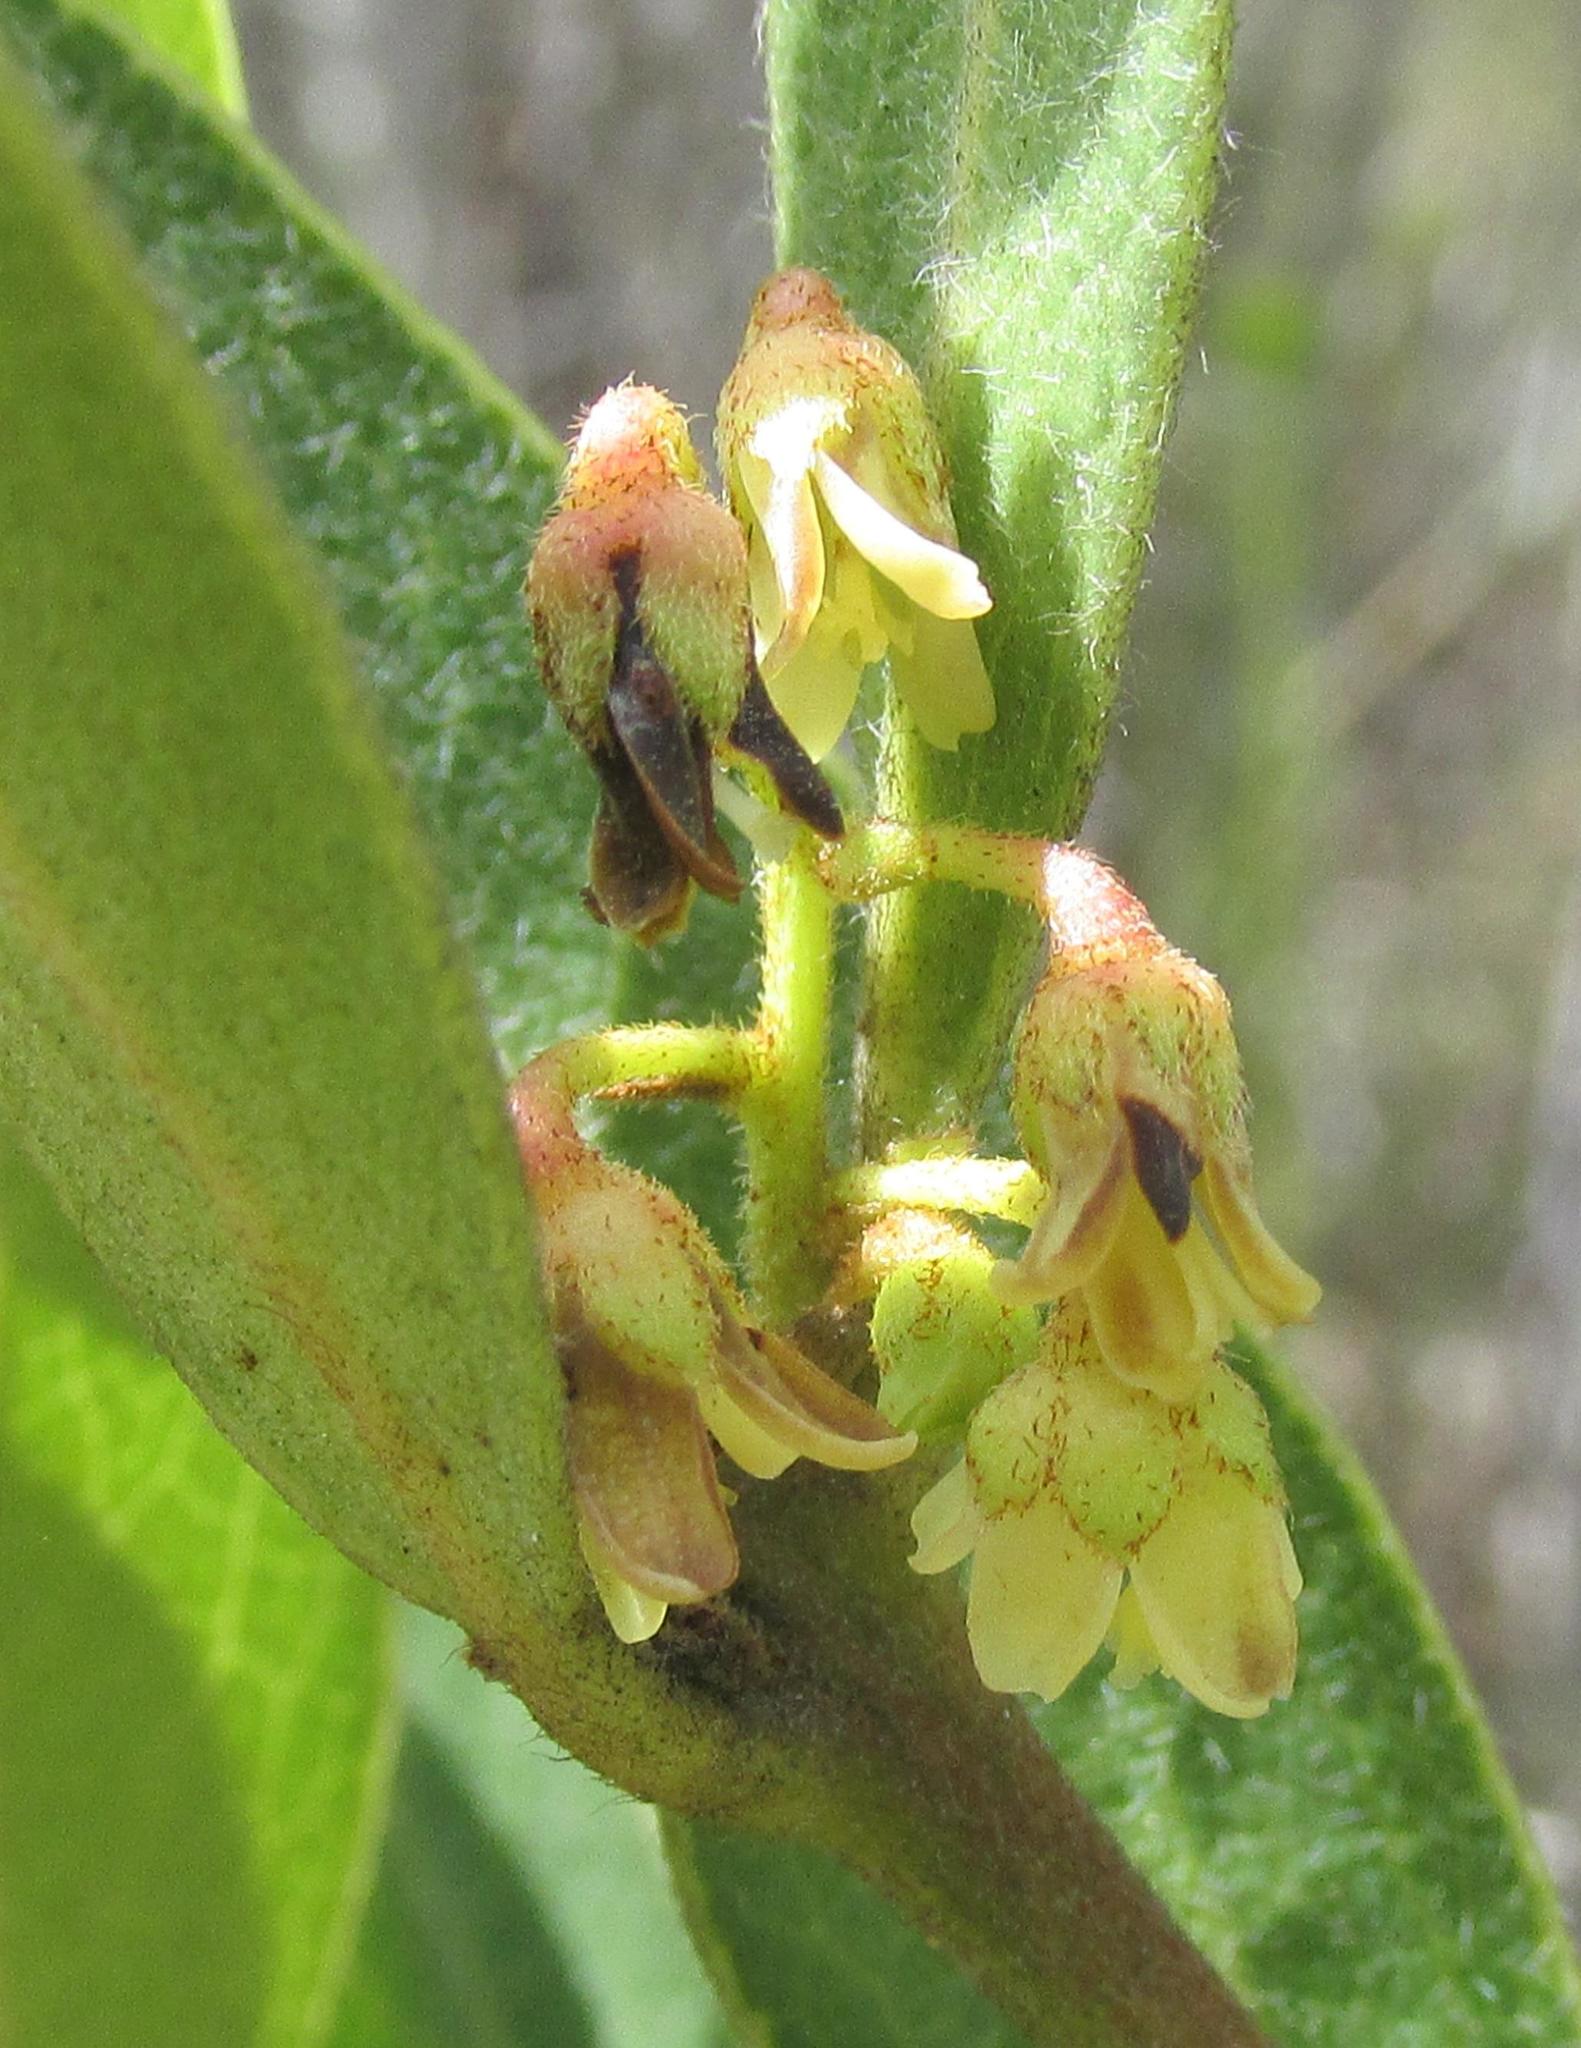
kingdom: Plantae
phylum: Tracheophyta
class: Magnoliopsida
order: Ericales
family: Ebenaceae
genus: Euclea
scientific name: Euclea natalensis
